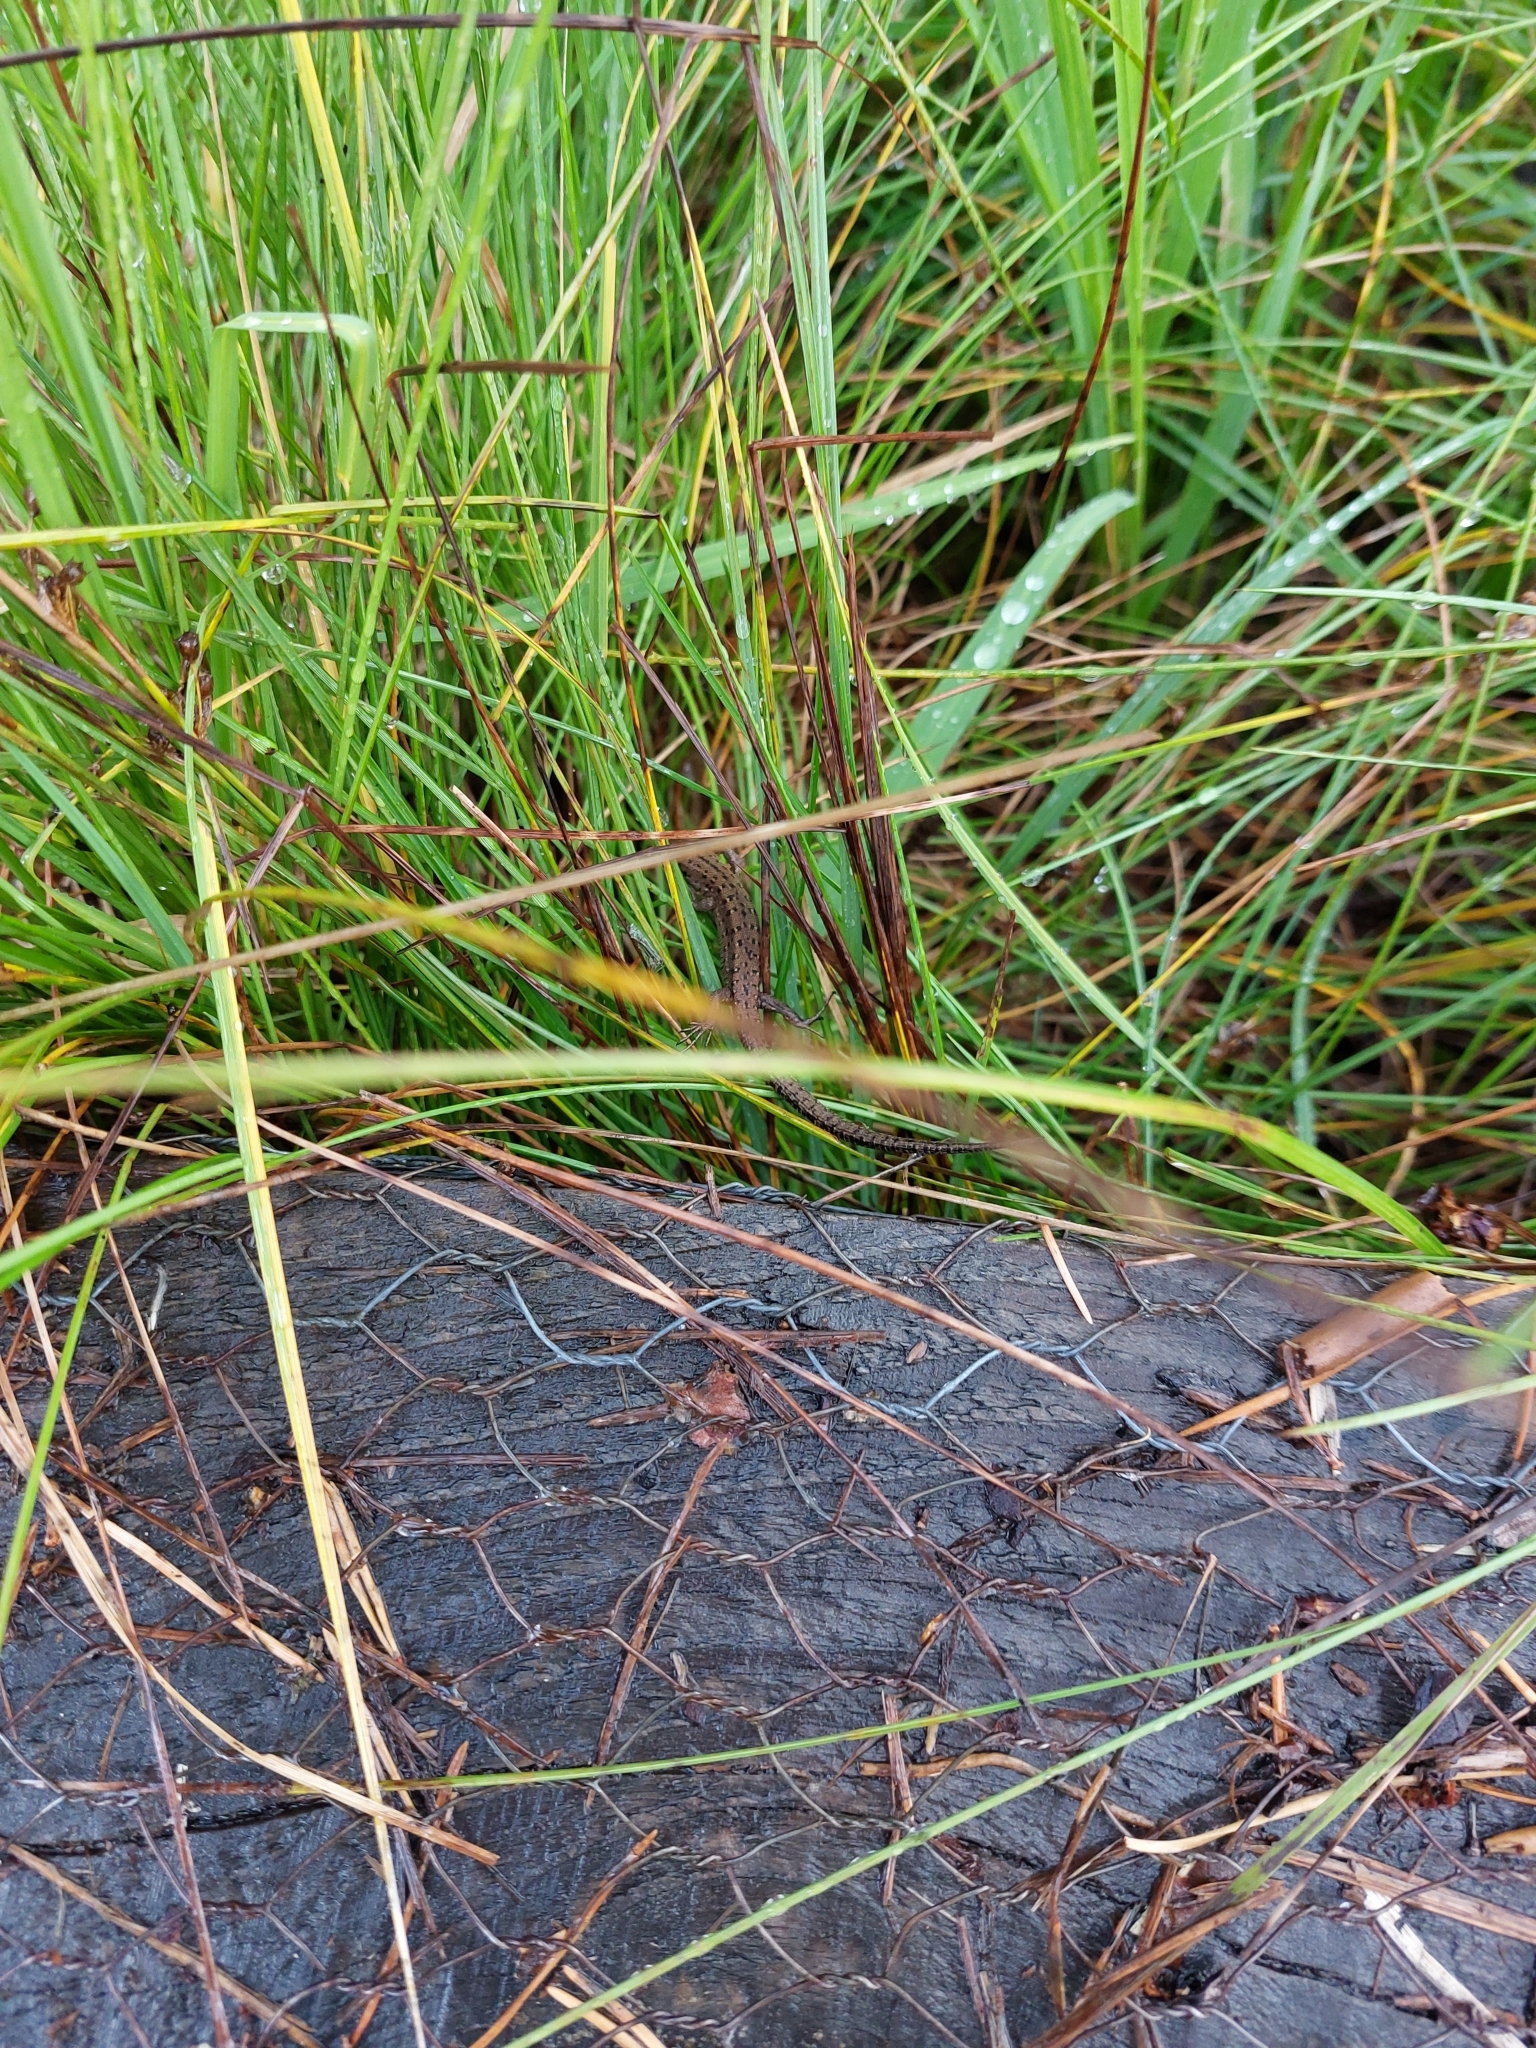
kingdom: Animalia
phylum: Chordata
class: Squamata
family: Lacertidae
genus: Zootoca
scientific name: Zootoca vivipara
